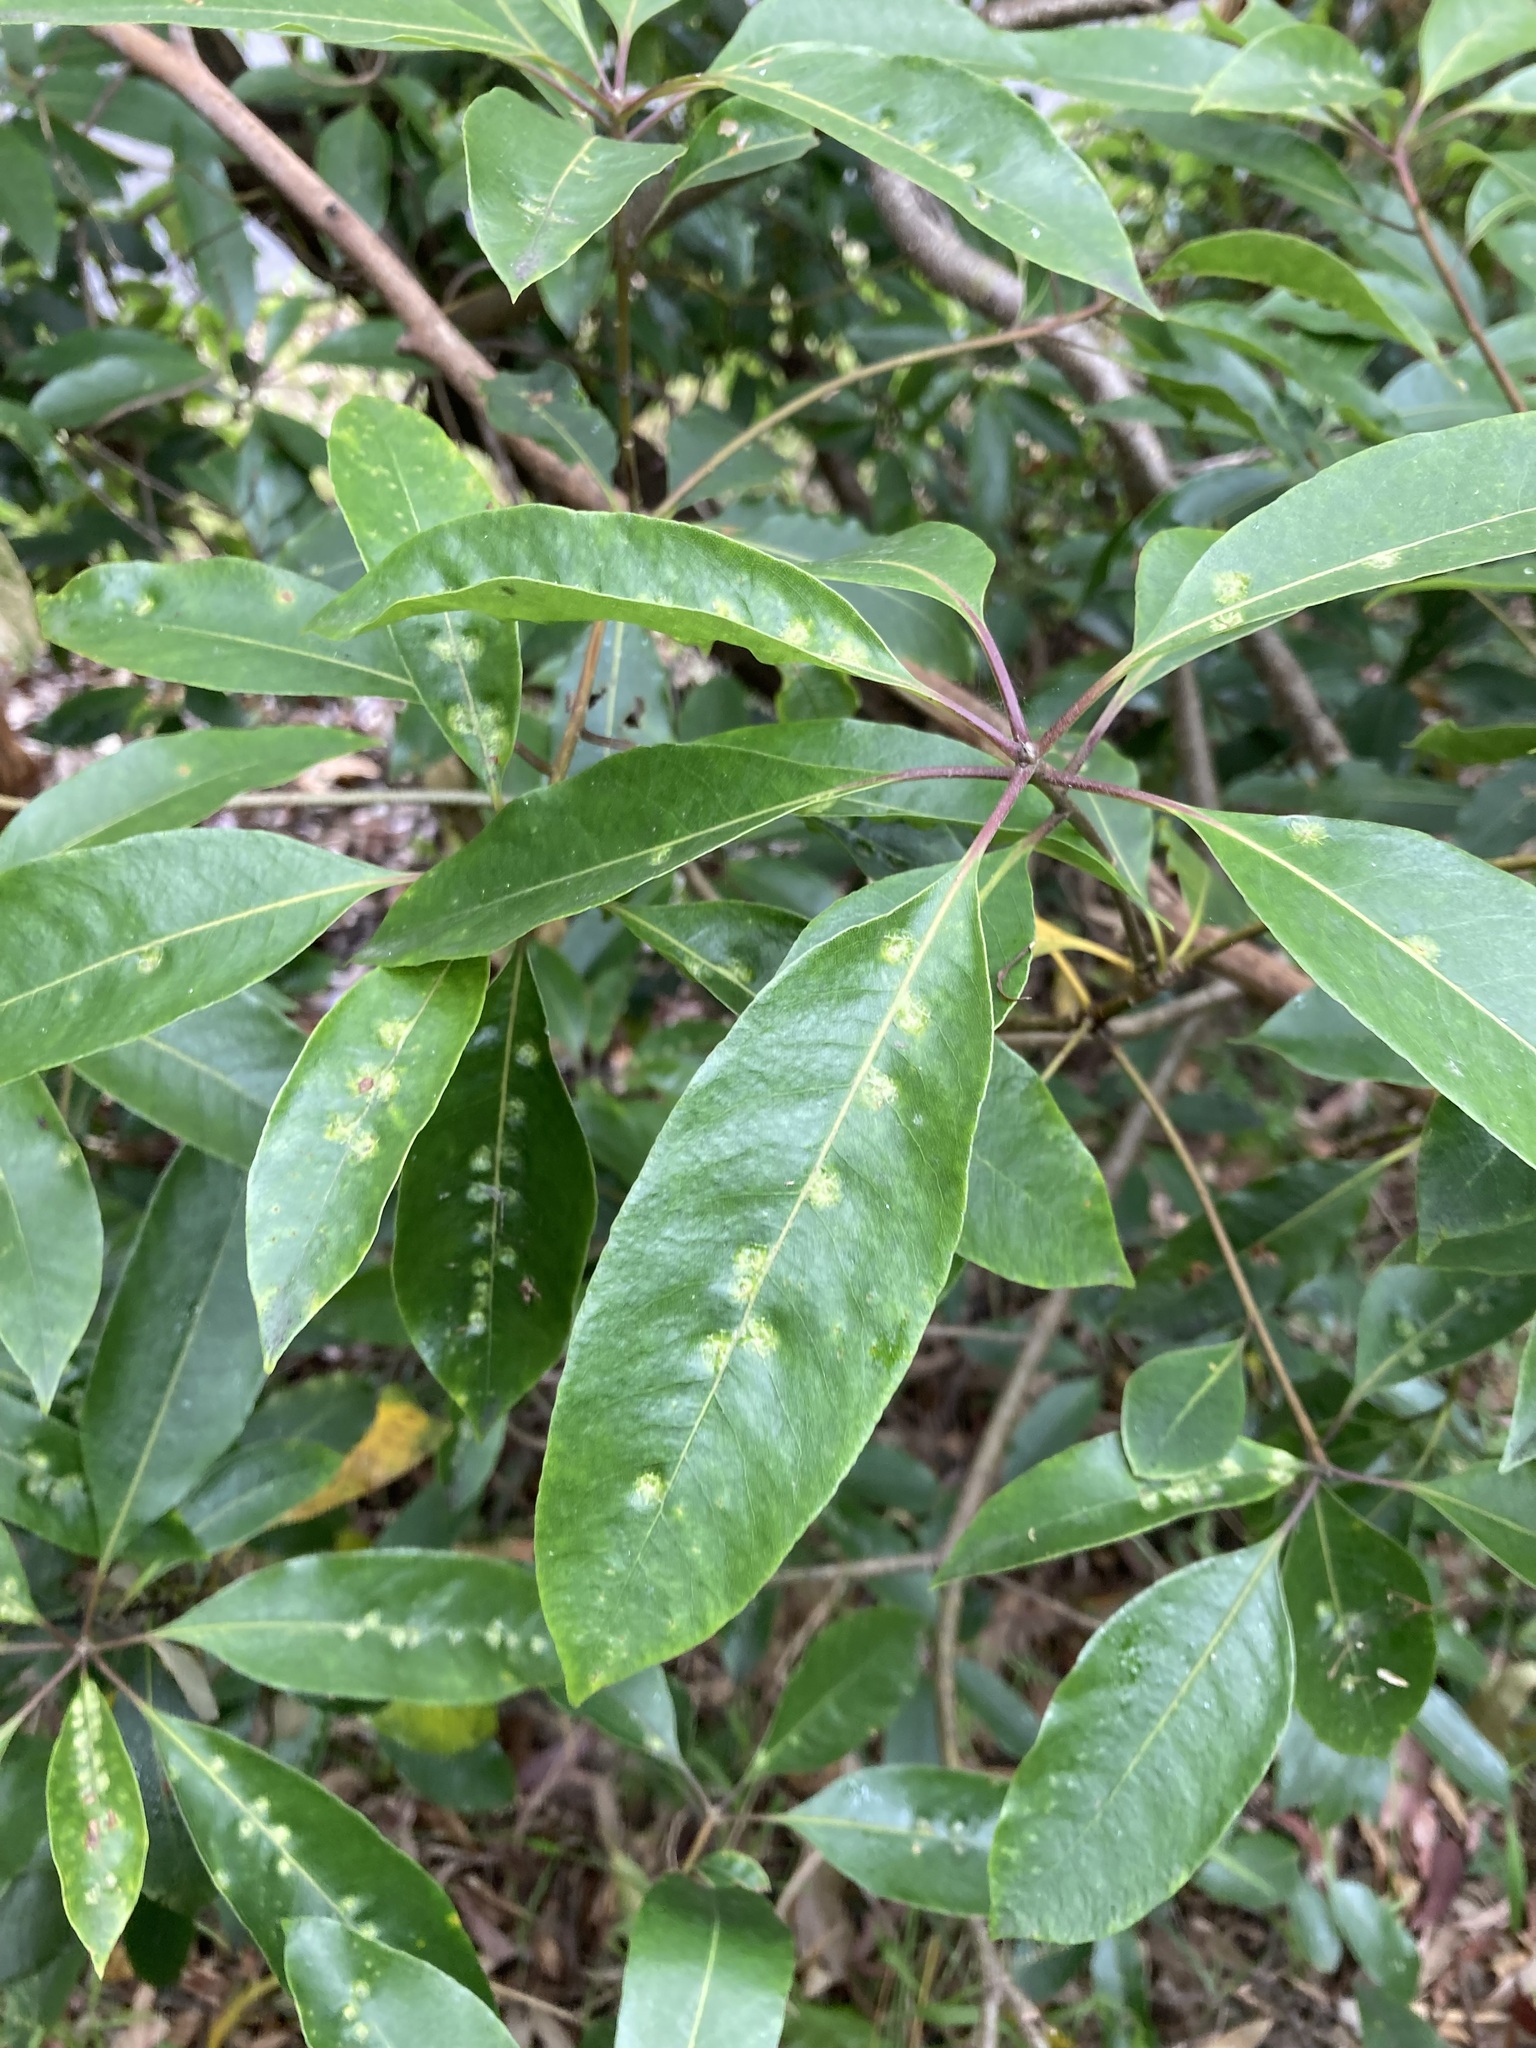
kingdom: Animalia
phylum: Arthropoda
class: Insecta
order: Diptera
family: Agromyzidae
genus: Phytoliriomyza
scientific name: Phytoliriomyza pittosporophylli
